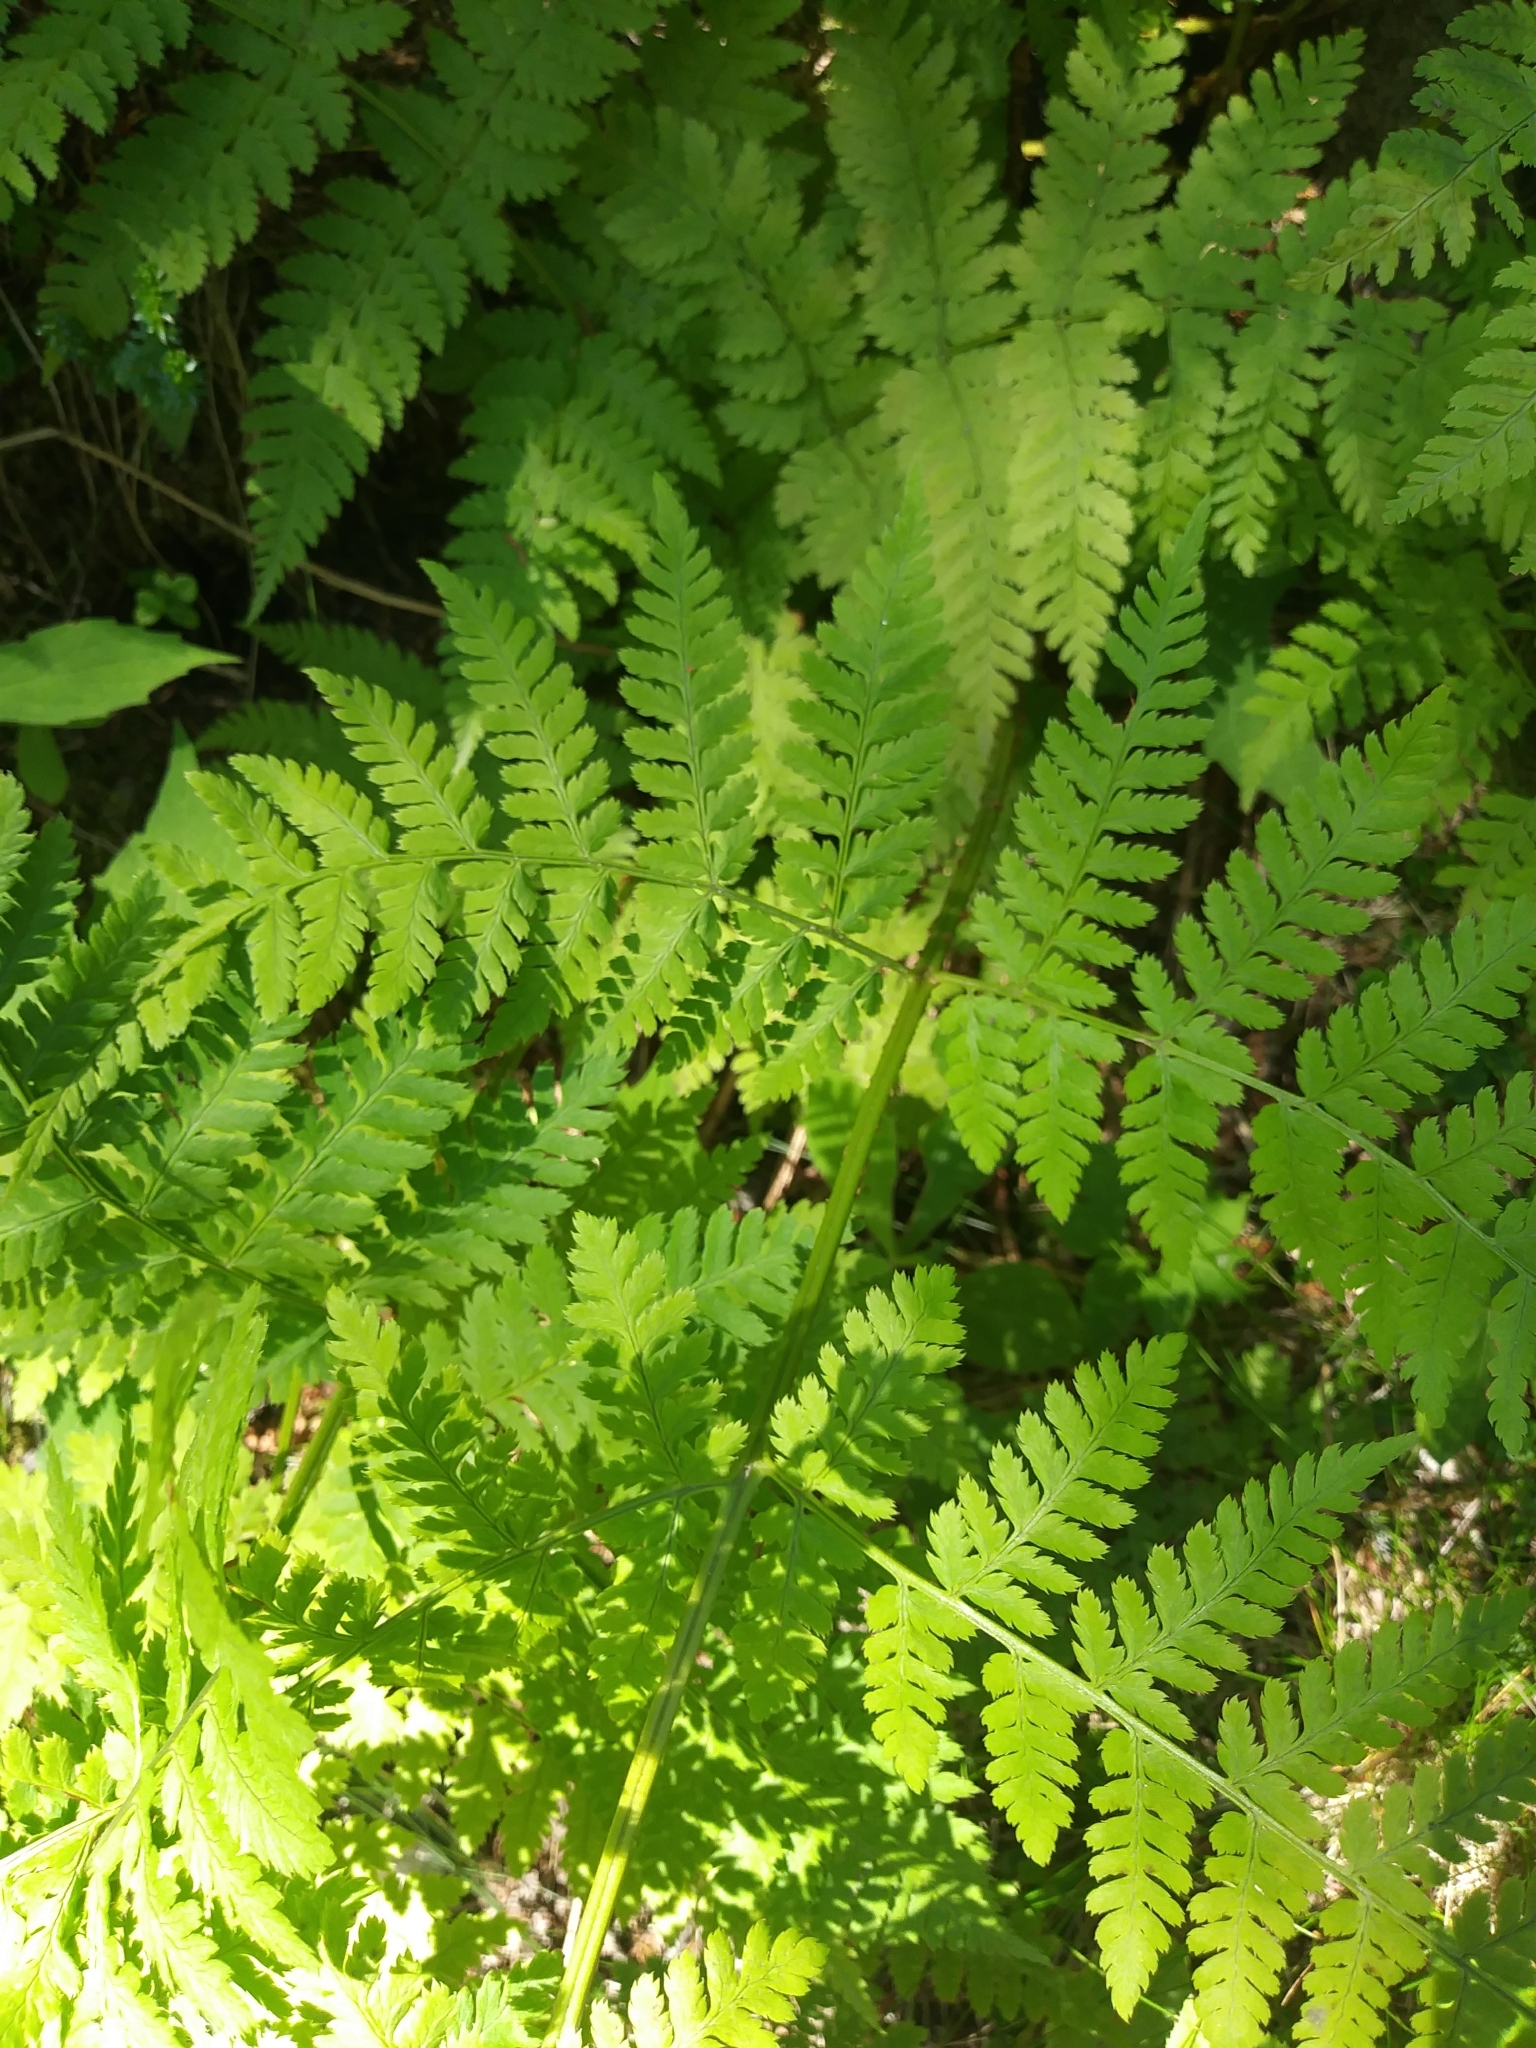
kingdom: Plantae
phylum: Tracheophyta
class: Polypodiopsida
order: Polypodiales
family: Dryopteridaceae
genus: Dryopteris
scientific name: Dryopteris campyloptera
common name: Mountain wood fern
